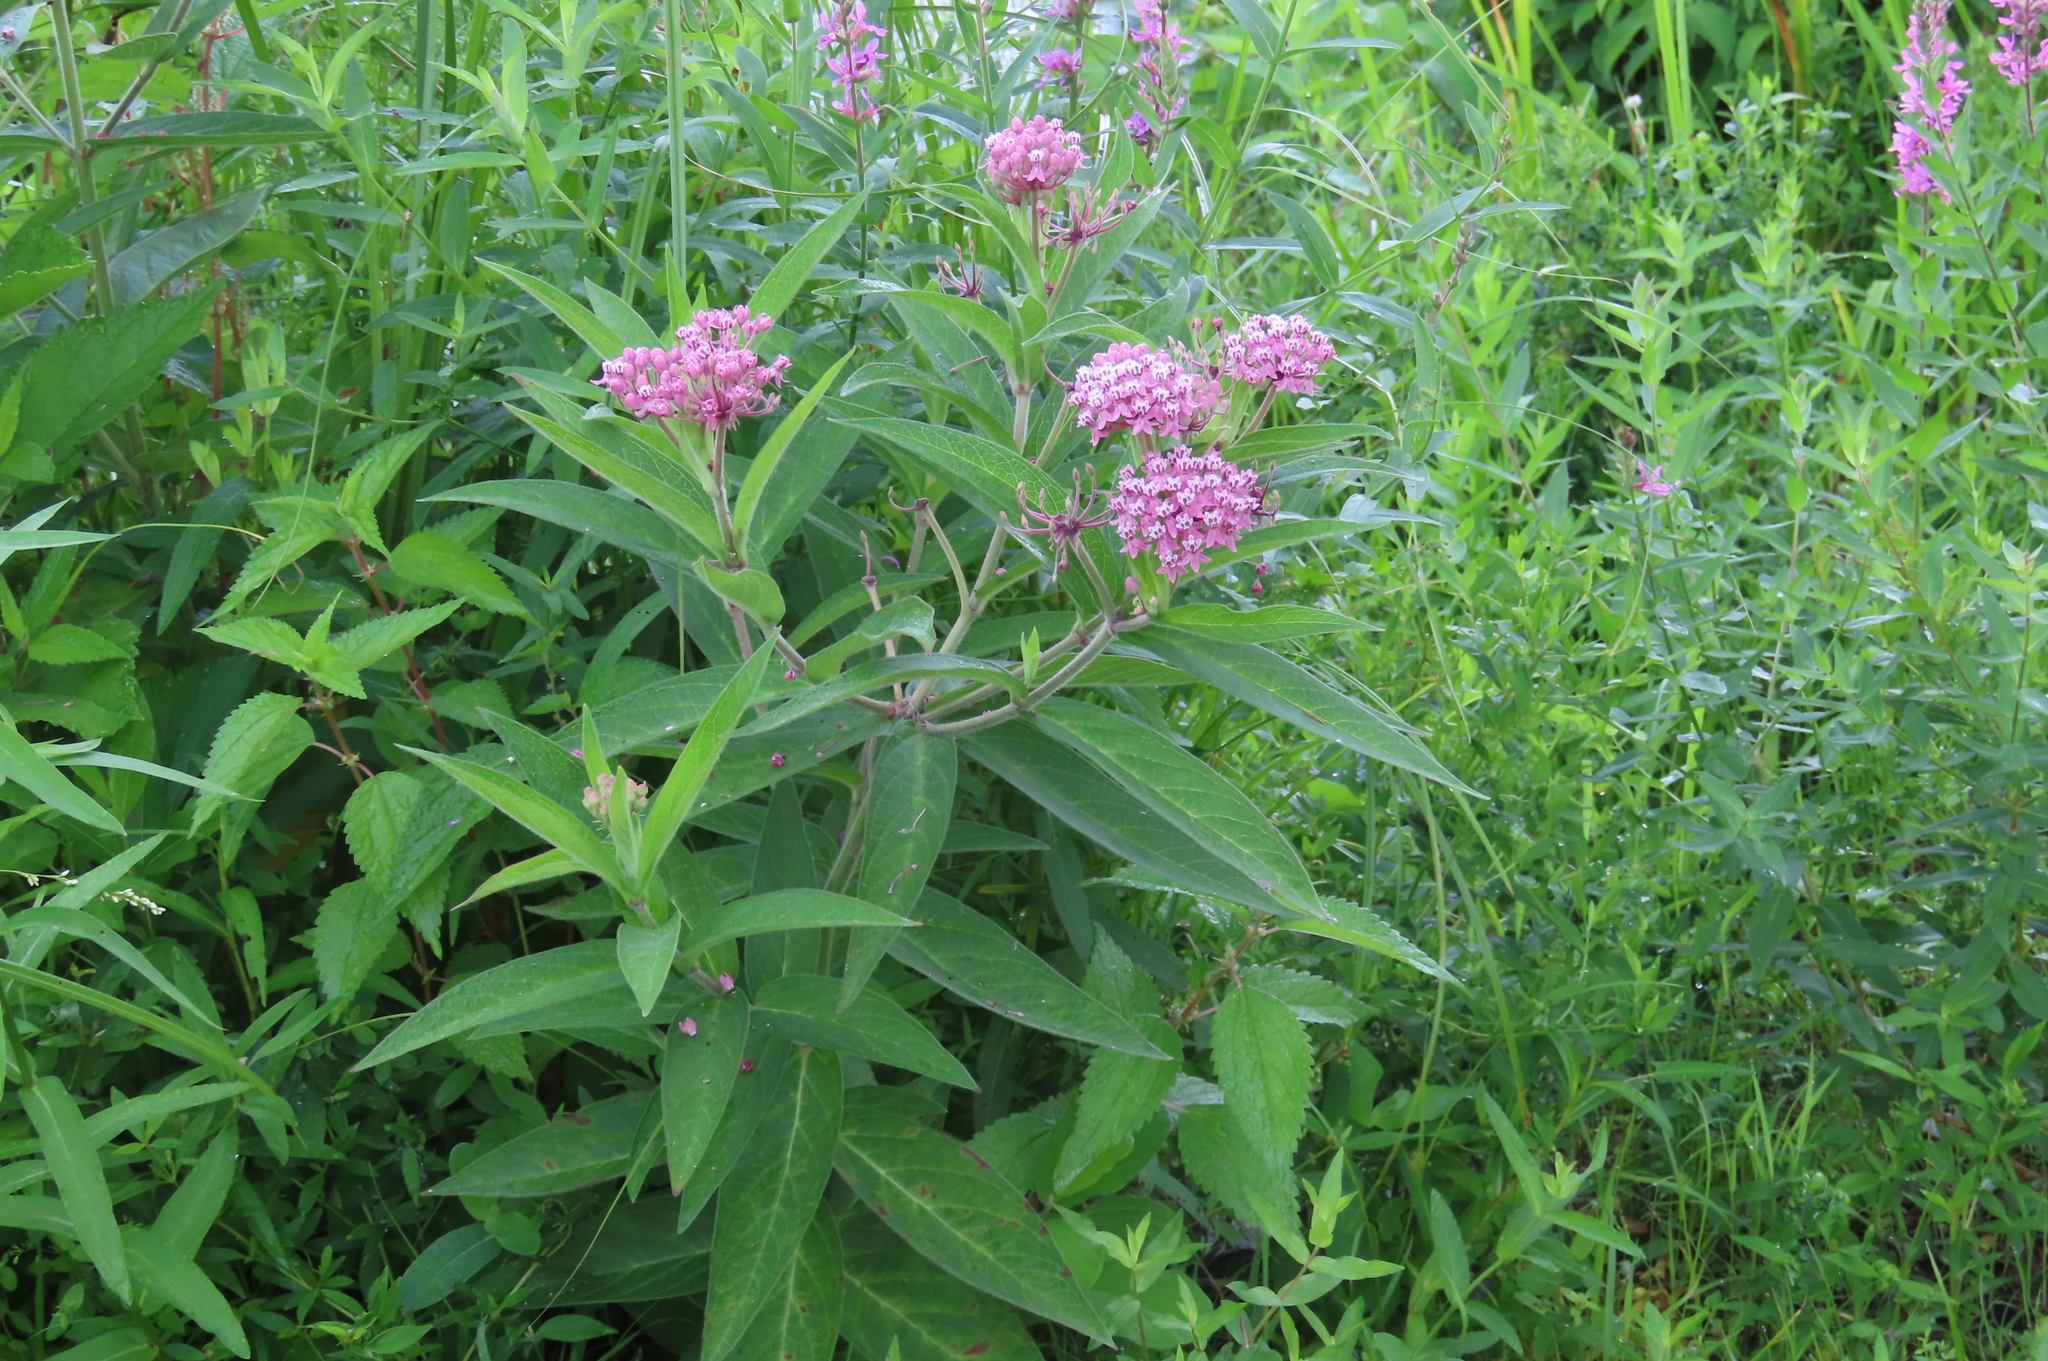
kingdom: Plantae
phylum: Tracheophyta
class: Magnoliopsida
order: Gentianales
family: Apocynaceae
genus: Asclepias
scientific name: Asclepias incarnata
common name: Swamp milkweed
